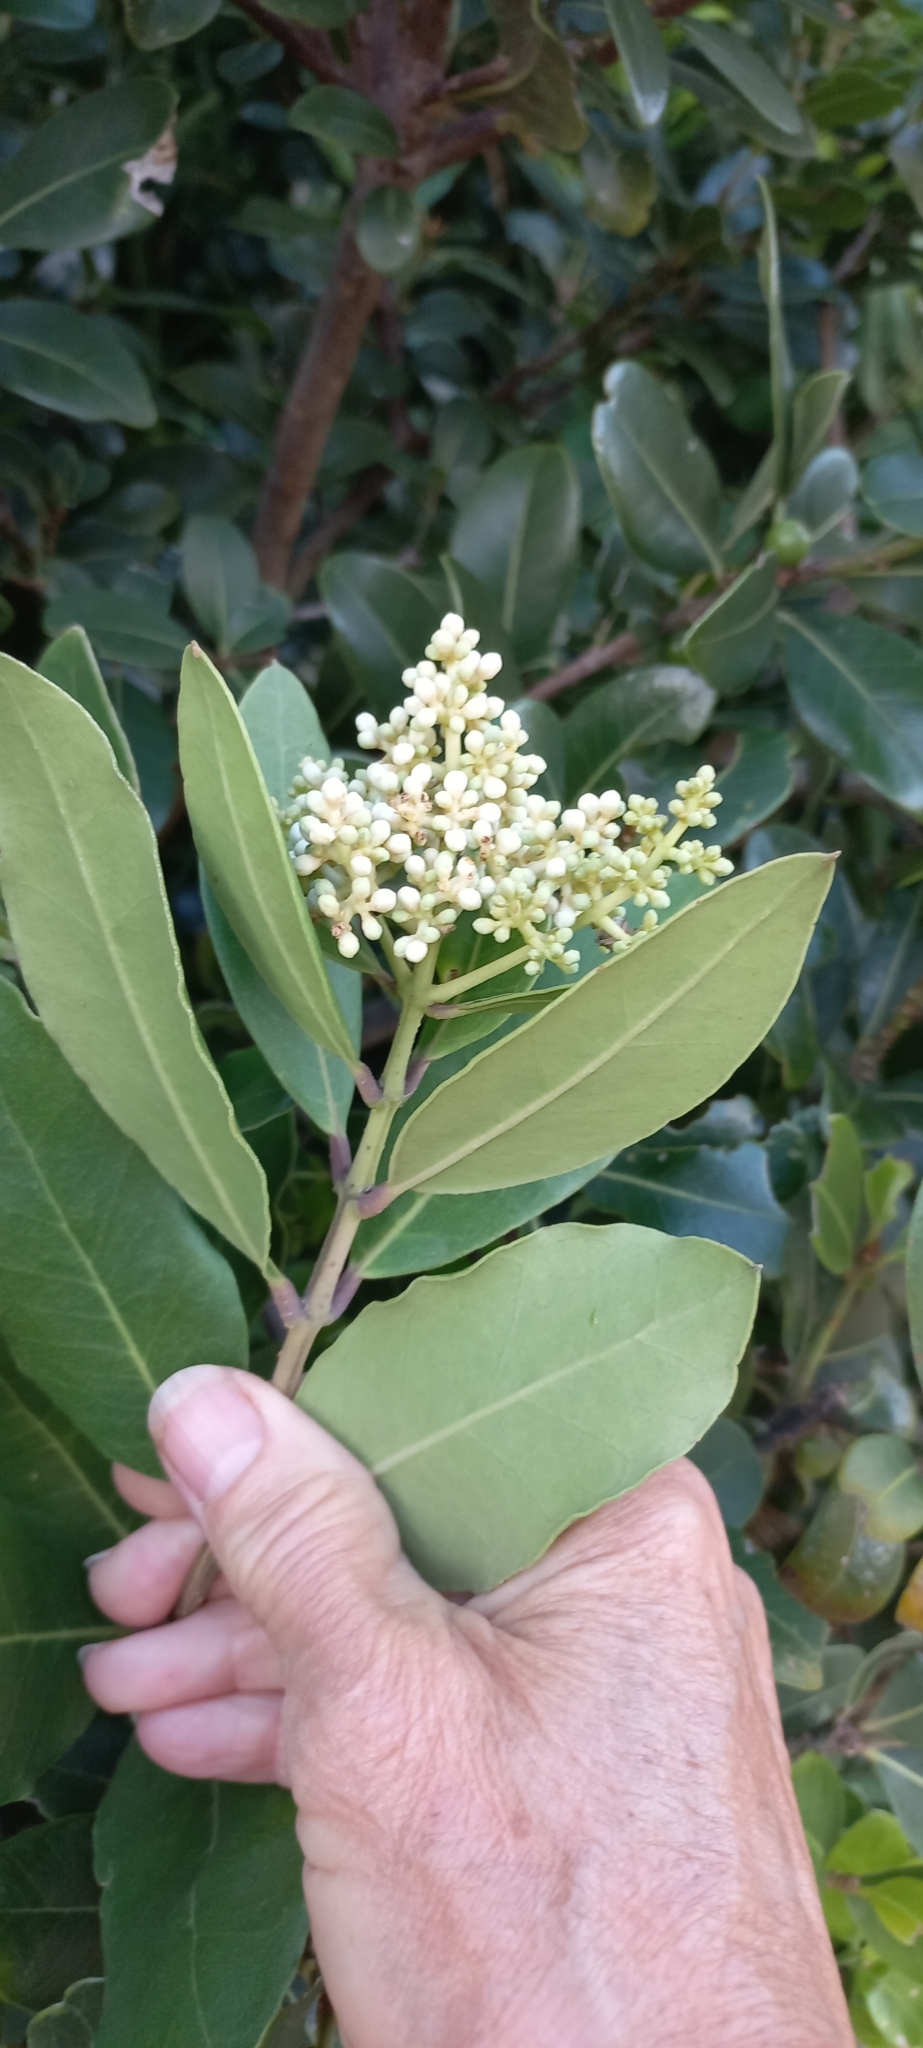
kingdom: Plantae
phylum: Tracheophyta
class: Magnoliopsida
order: Lamiales
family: Oleaceae
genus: Olea
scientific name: Olea capensis
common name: Black ironwood
